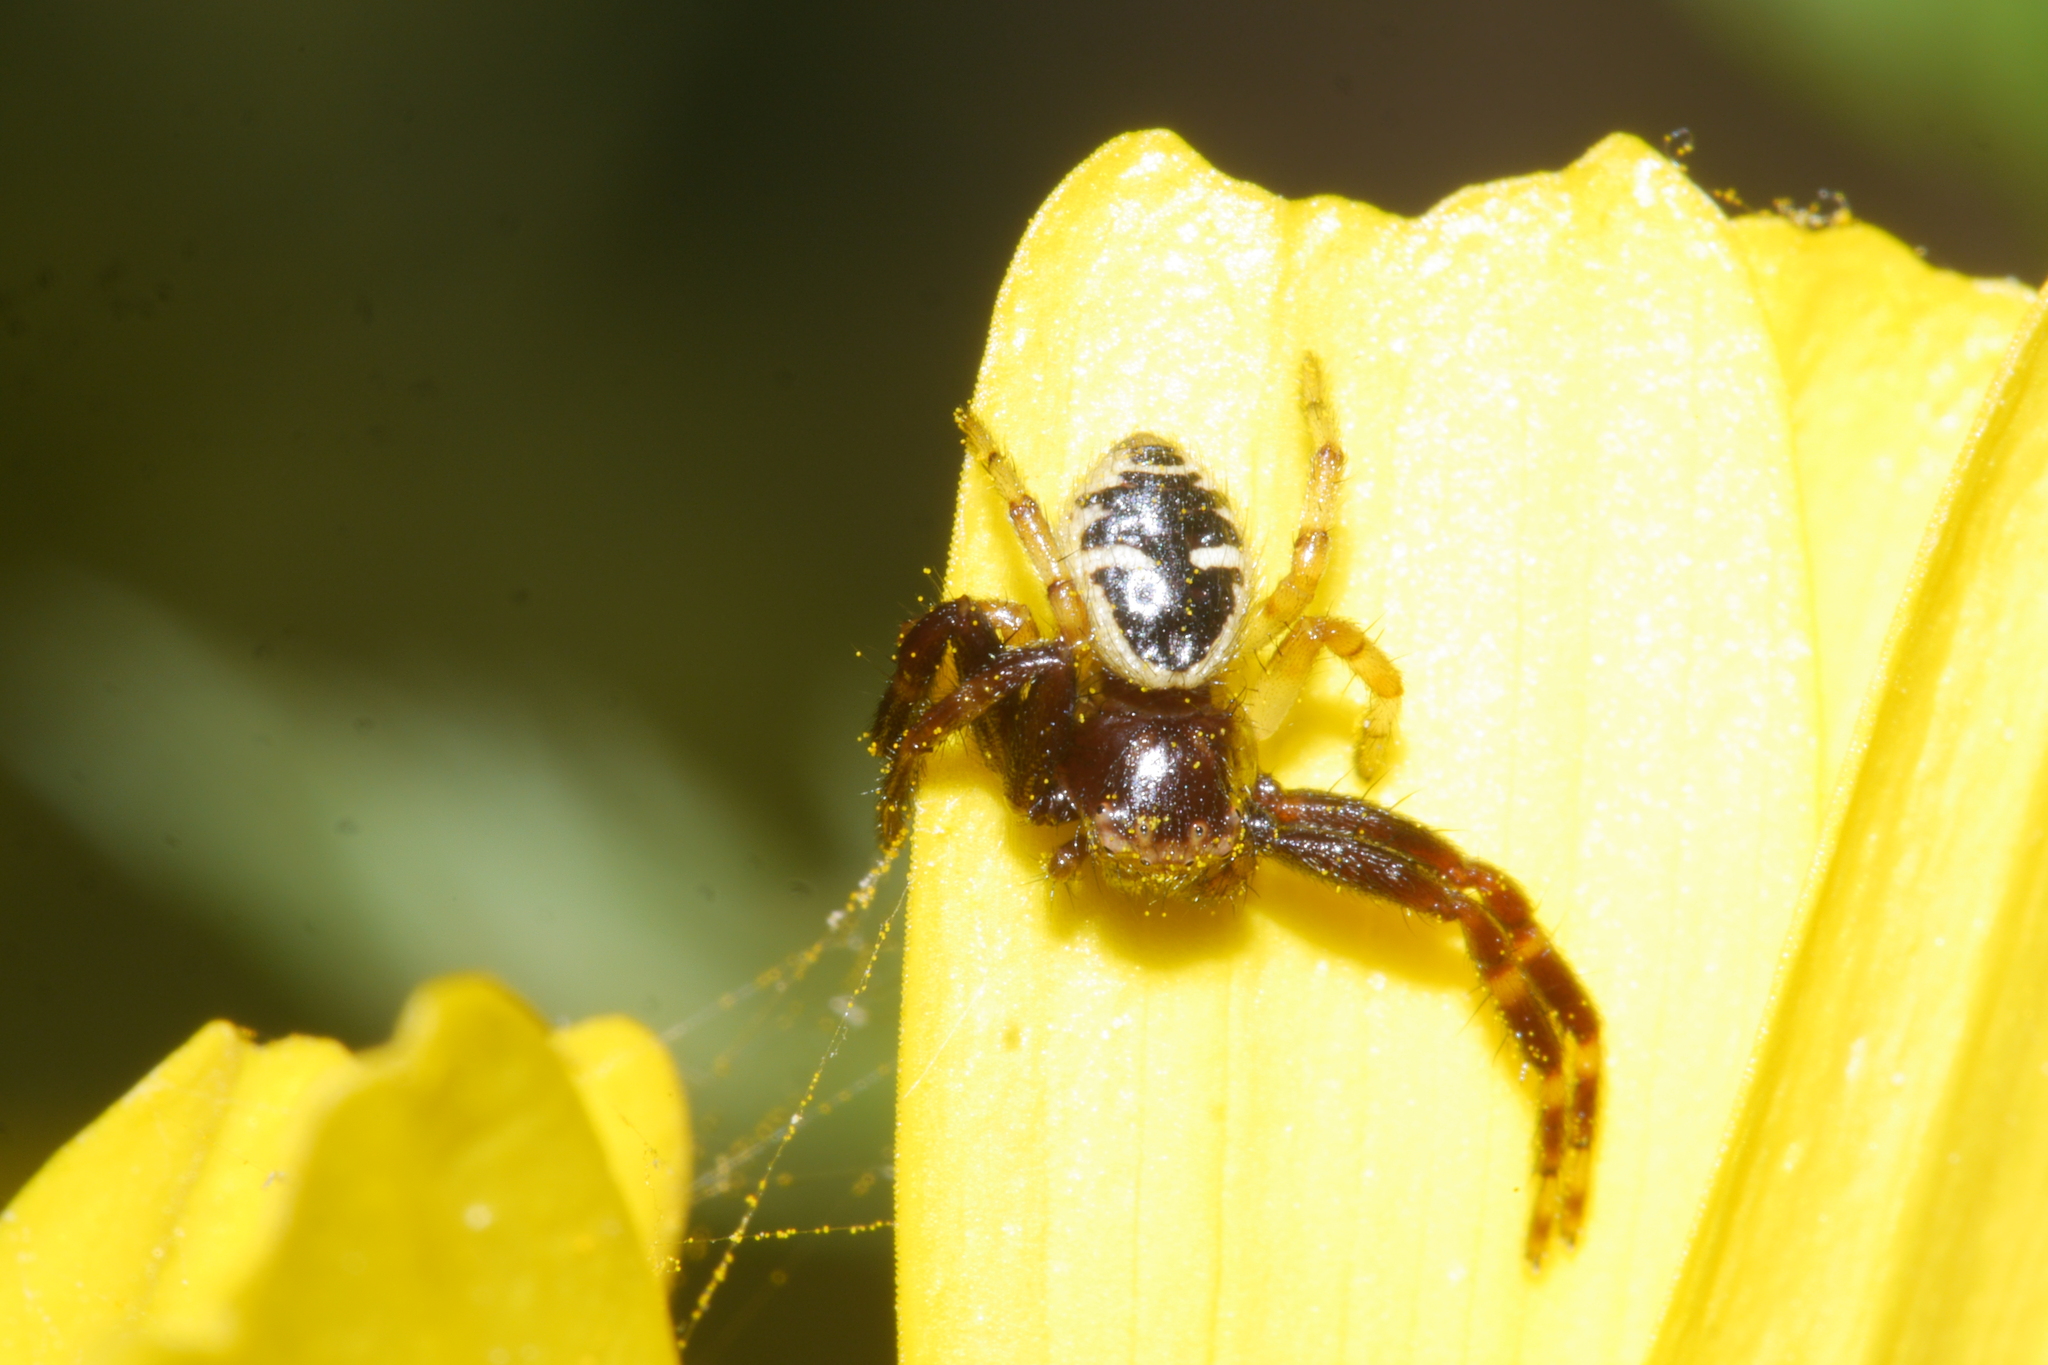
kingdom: Animalia
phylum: Arthropoda
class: Arachnida
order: Araneae
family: Thomisidae
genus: Synema
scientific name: Synema globosum
